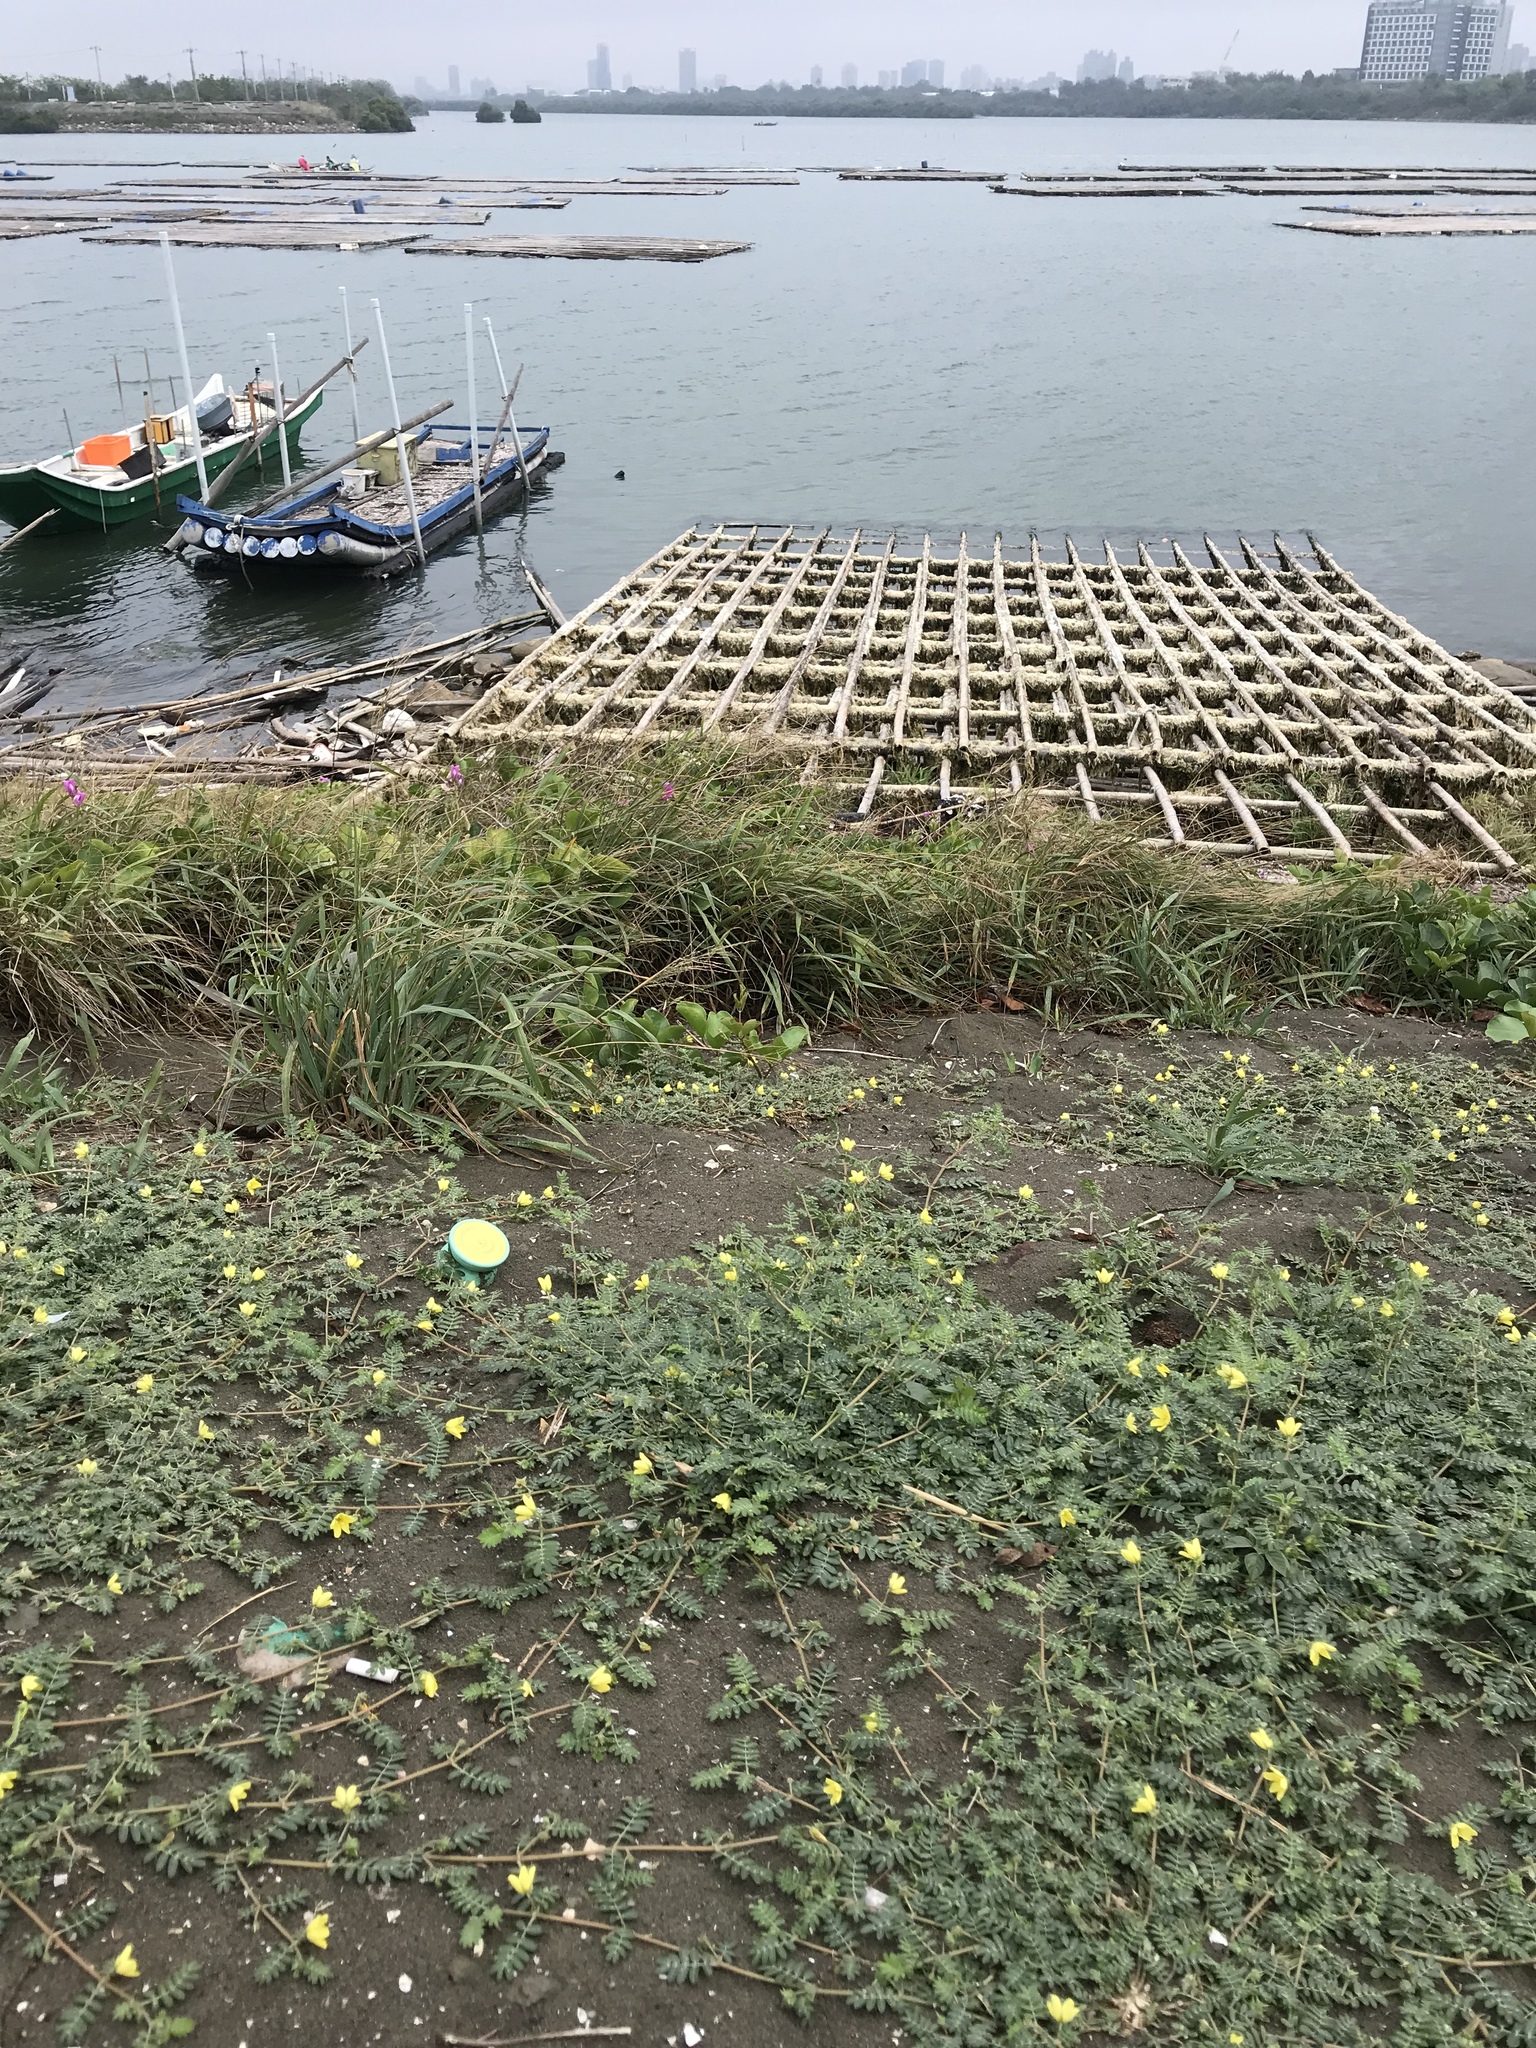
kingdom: Plantae
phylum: Tracheophyta
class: Magnoliopsida
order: Zygophyllales
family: Zygophyllaceae
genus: Tribulus
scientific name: Tribulus cistoides
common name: Jamaican feverplant
